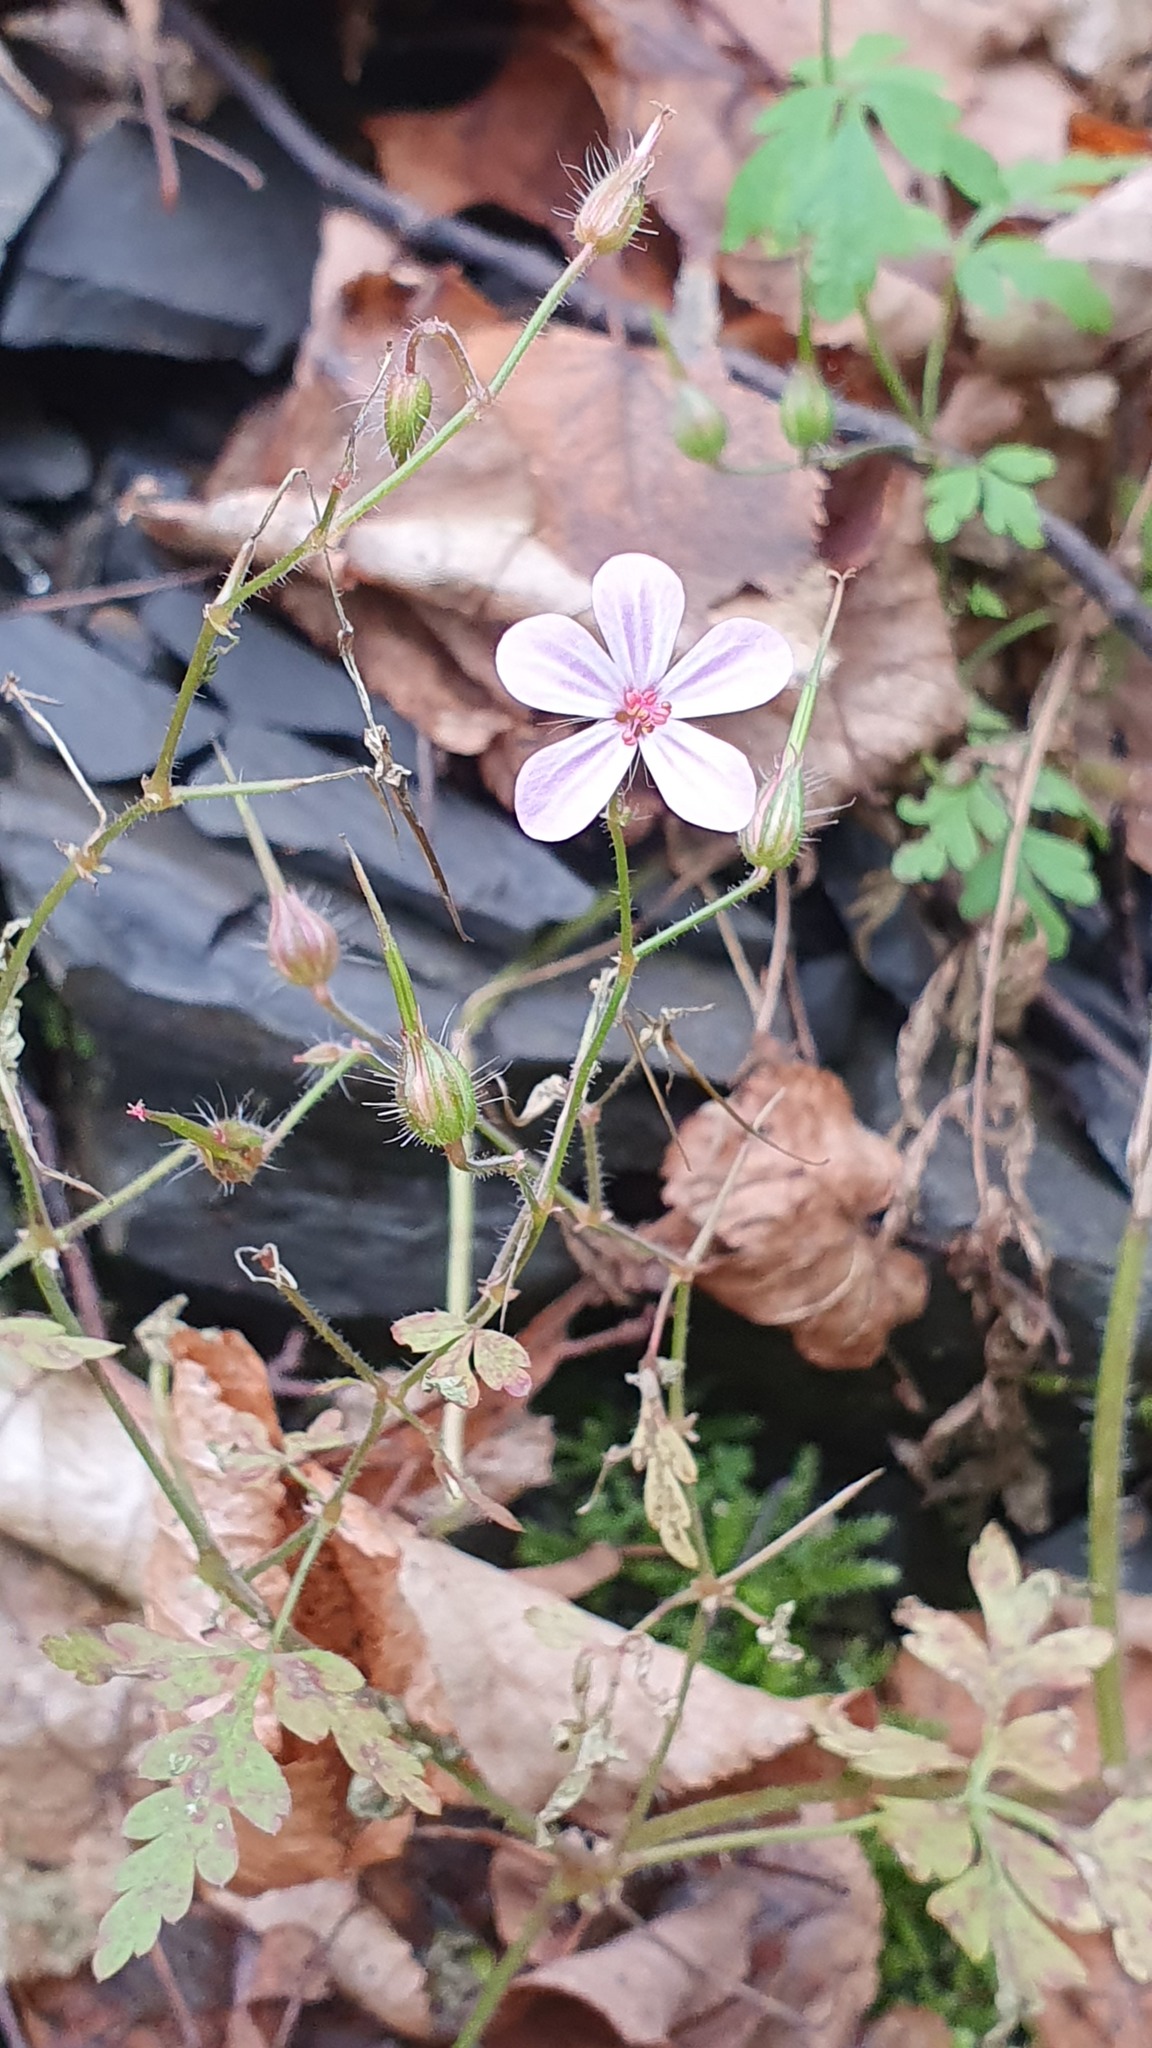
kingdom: Plantae
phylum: Tracheophyta
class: Magnoliopsida
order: Geraniales
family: Geraniaceae
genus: Geranium
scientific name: Geranium robertianum
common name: Herb-robert
